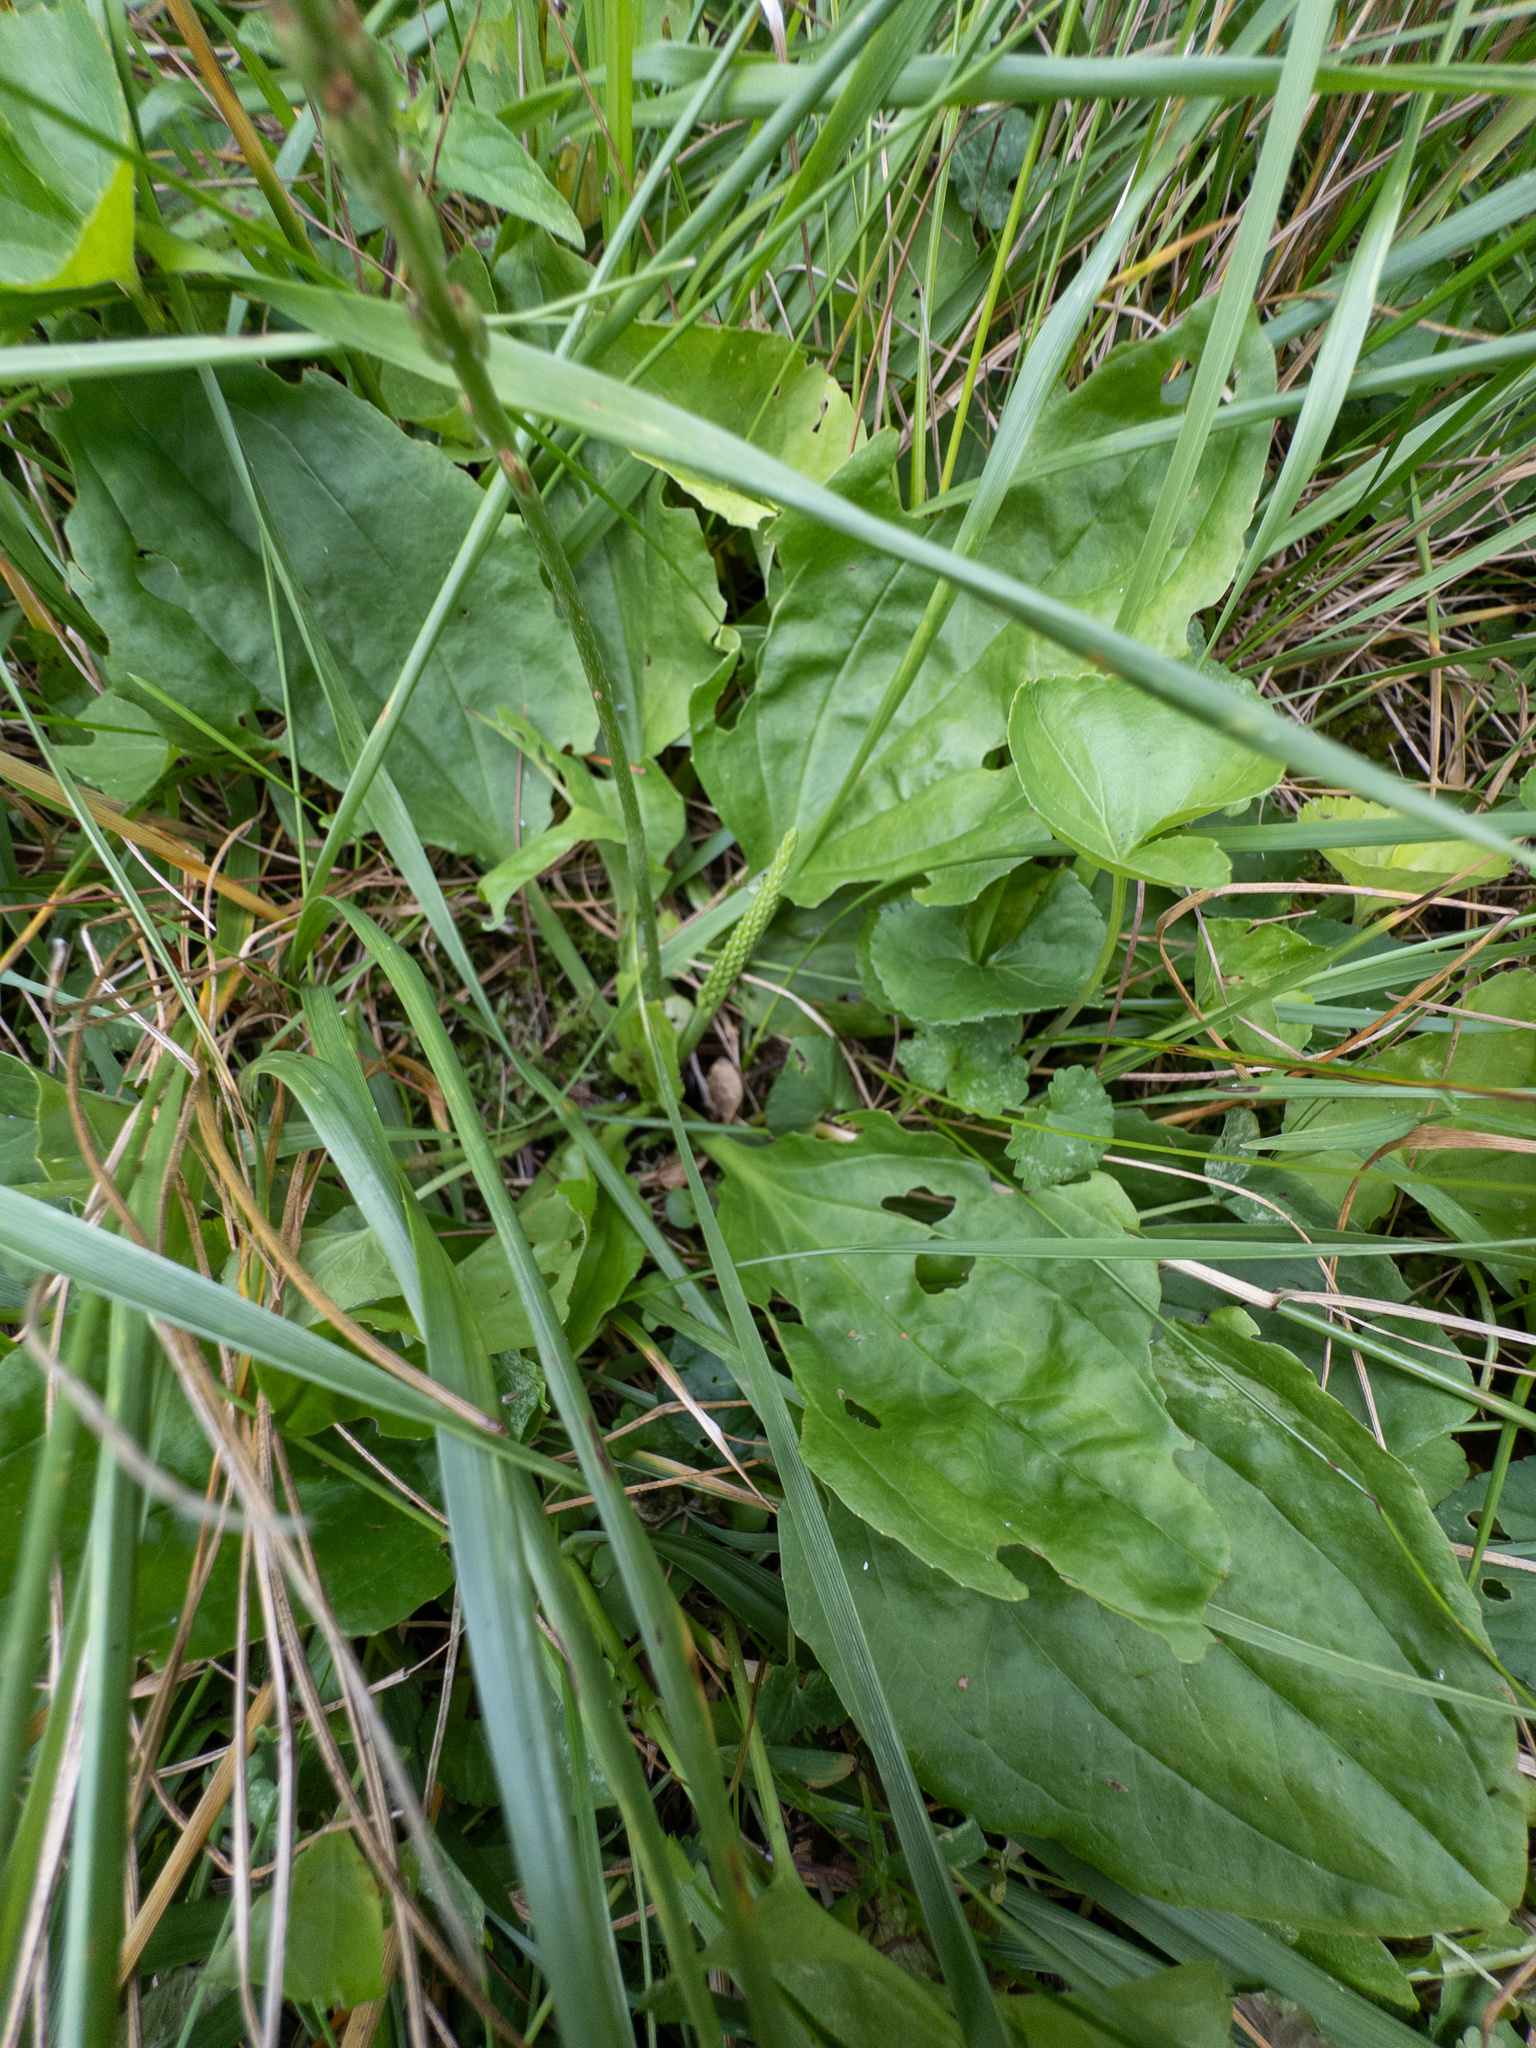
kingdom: Plantae
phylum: Tracheophyta
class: Magnoliopsida
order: Lamiales
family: Plantaginaceae
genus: Plantago
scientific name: Plantago rugelii
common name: American plantain
